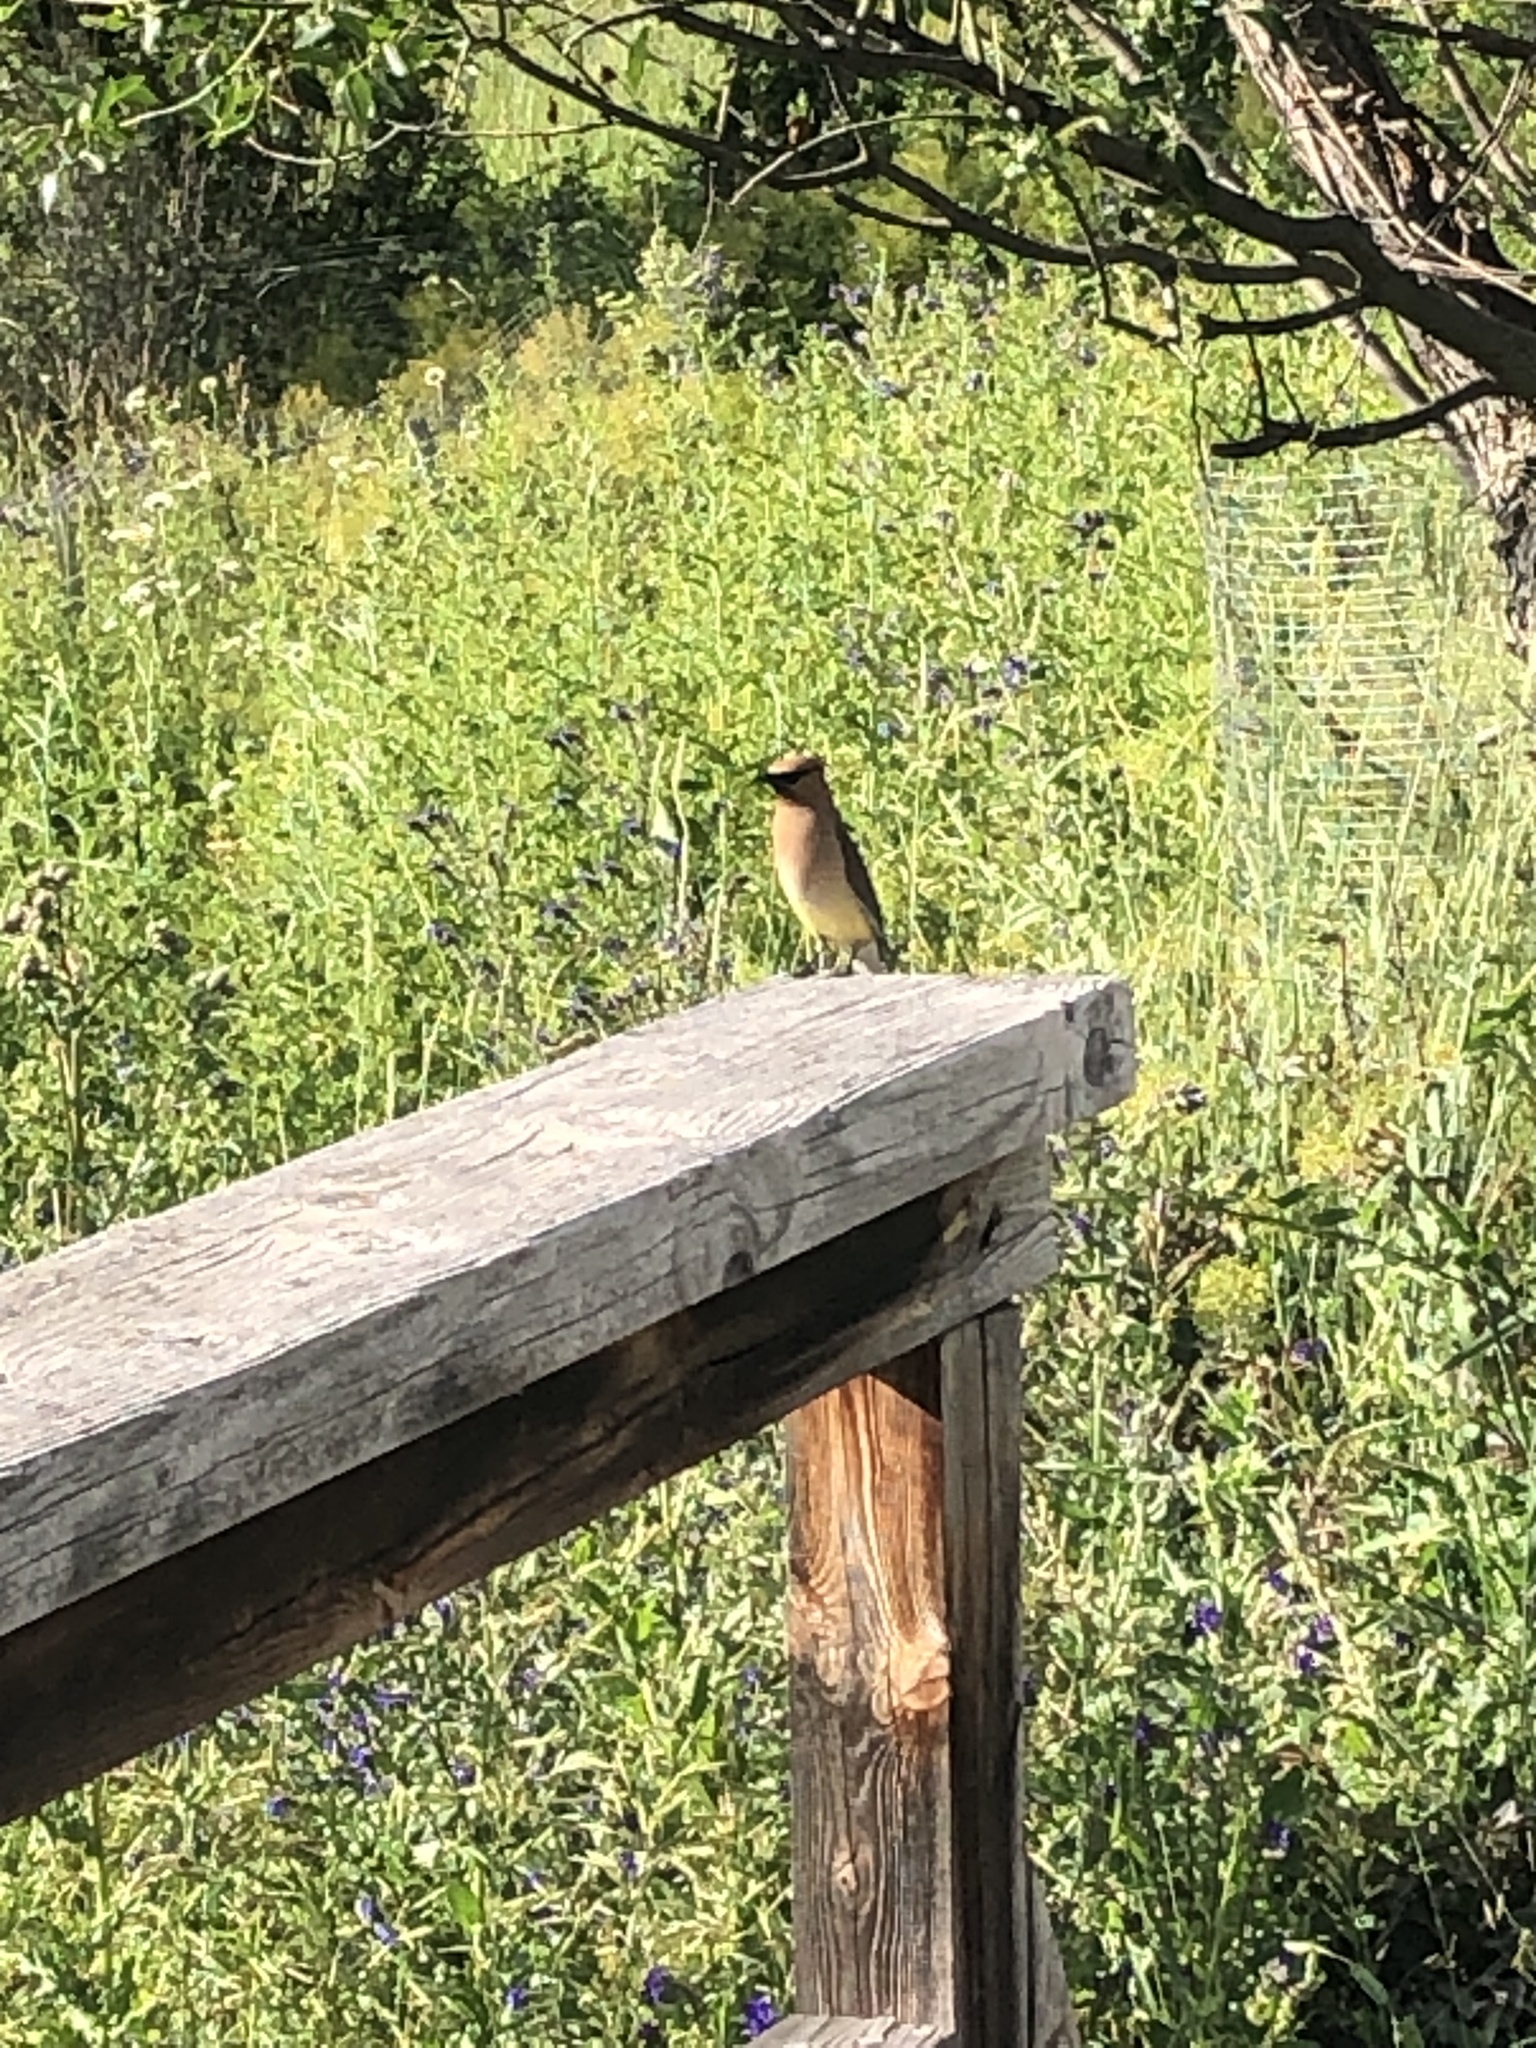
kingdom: Animalia
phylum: Chordata
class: Aves
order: Passeriformes
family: Bombycillidae
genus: Bombycilla
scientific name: Bombycilla cedrorum
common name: Cedar waxwing
